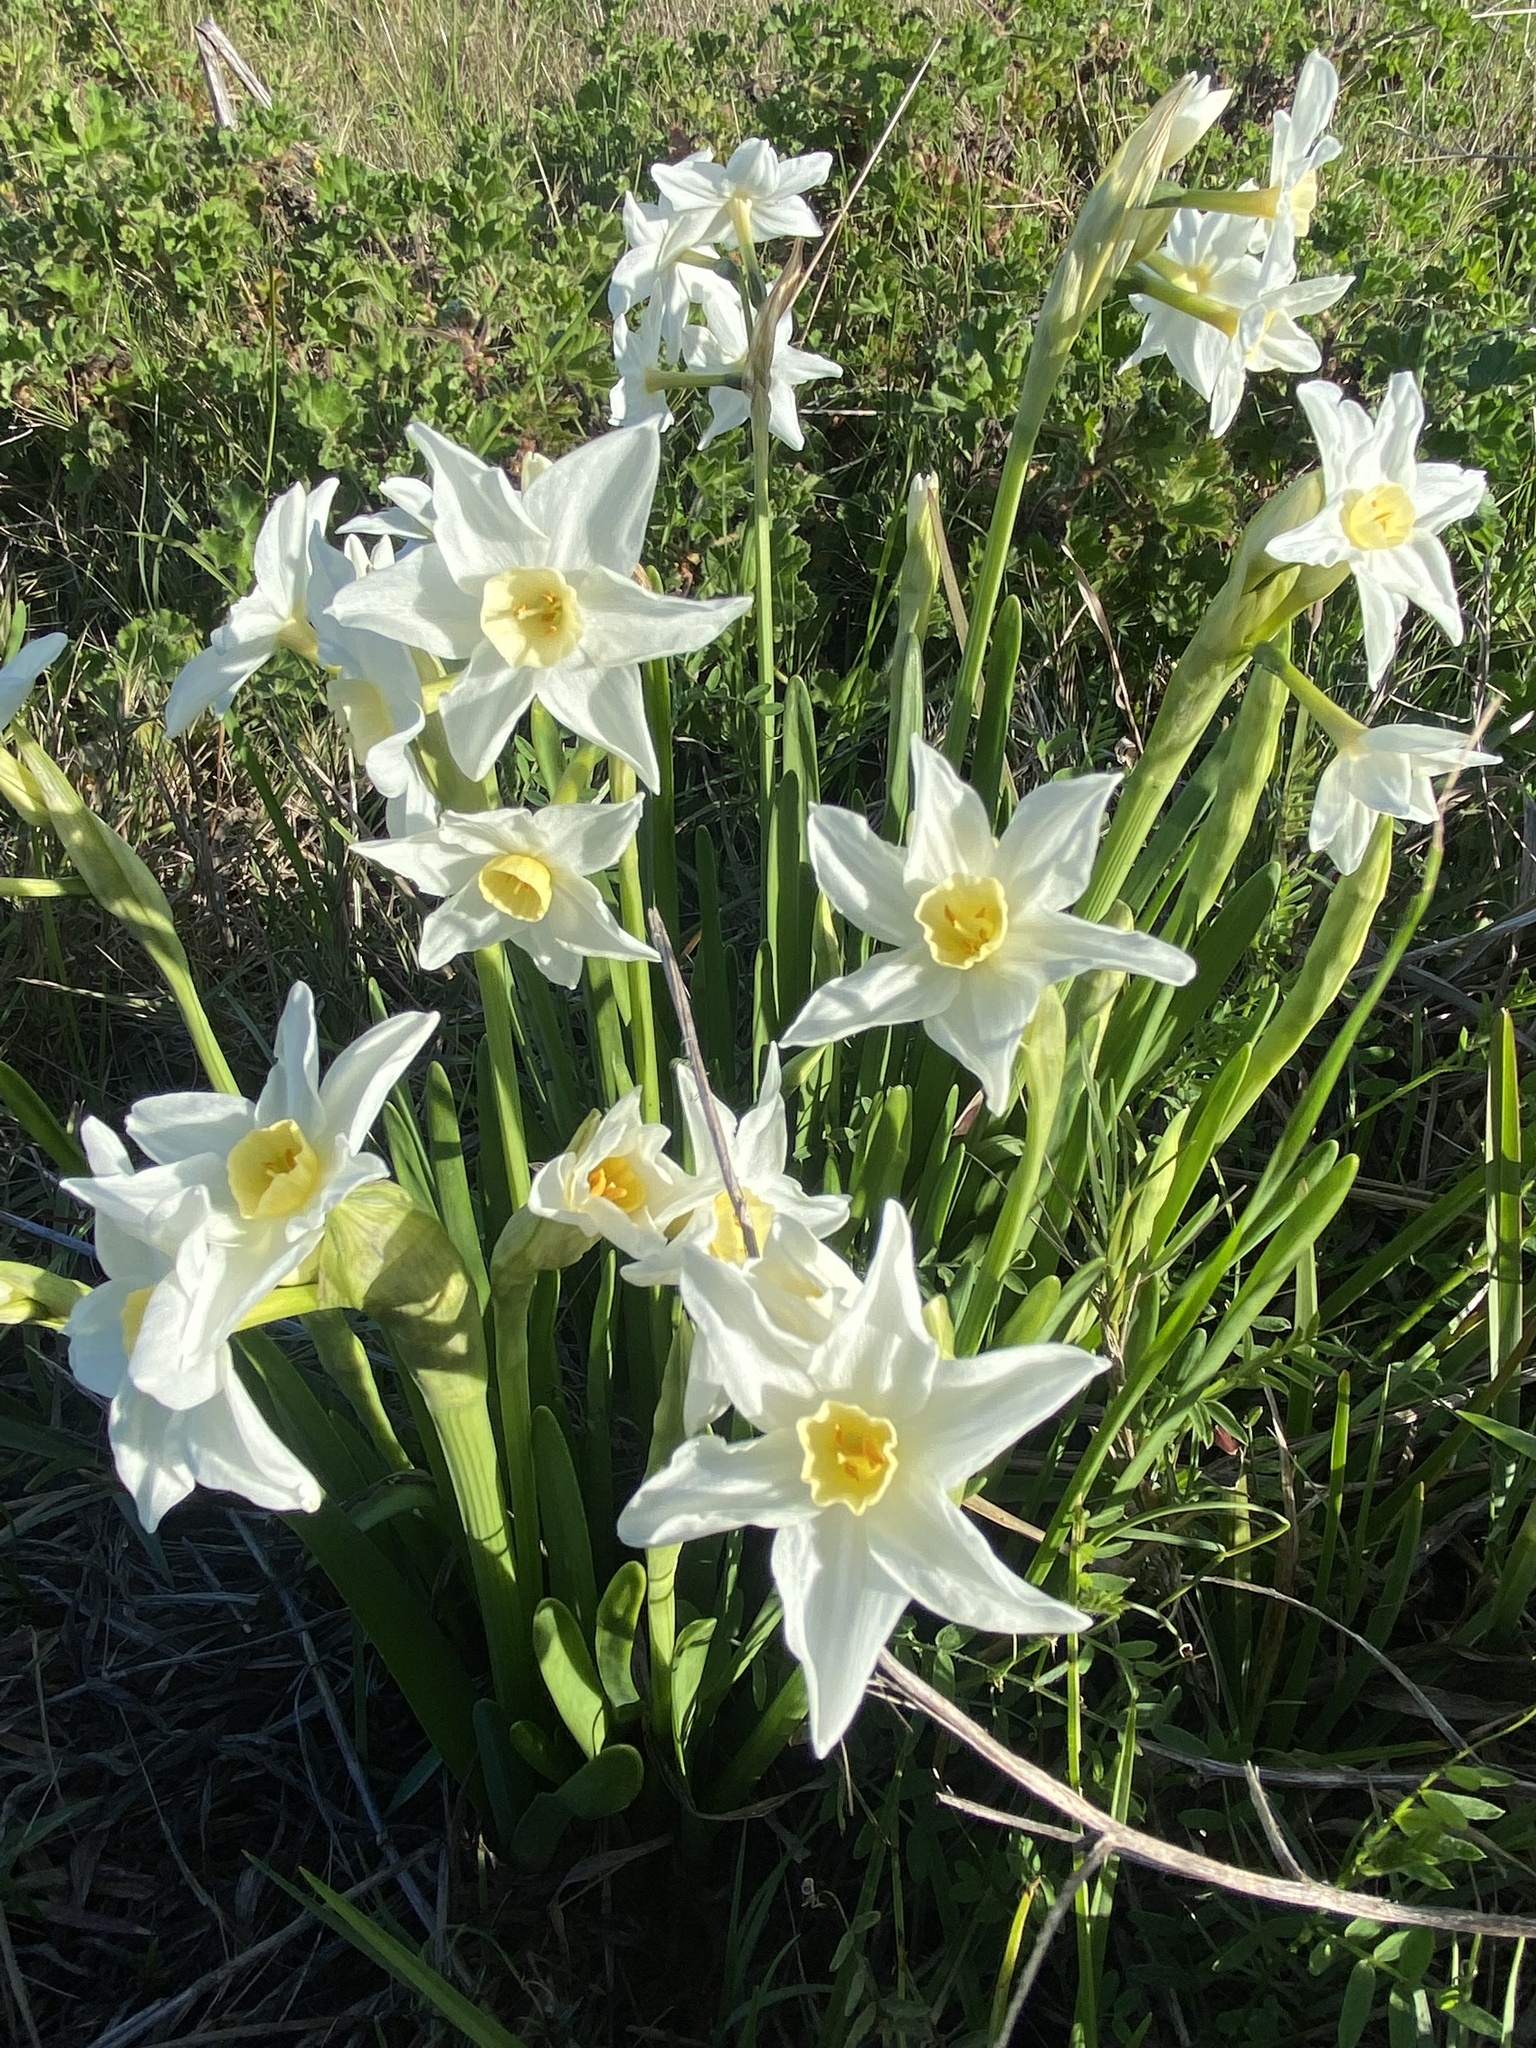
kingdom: Plantae
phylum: Tracheophyta
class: Liliopsida
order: Asparagales
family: Amaryllidaceae
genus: Narcissus
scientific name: Narcissus papyraceus
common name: Paper-white daffodil
